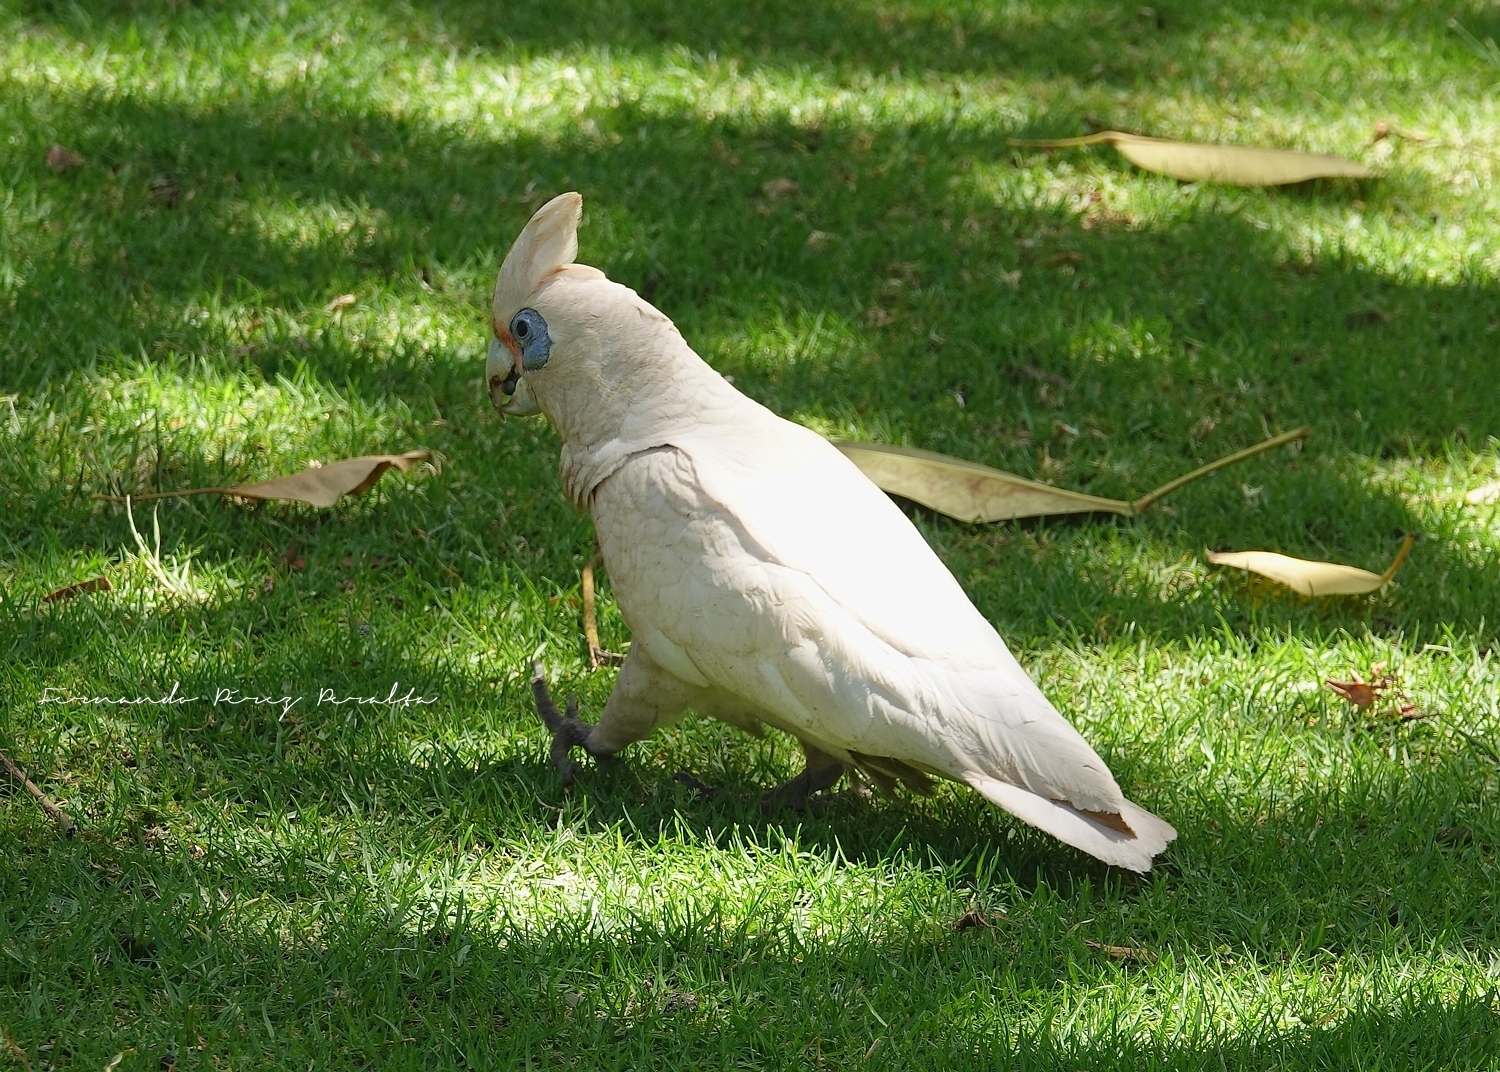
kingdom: Animalia
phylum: Chordata
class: Aves
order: Psittaciformes
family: Psittacidae
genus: Cacatua
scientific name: Cacatua sanguinea
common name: Little corella
